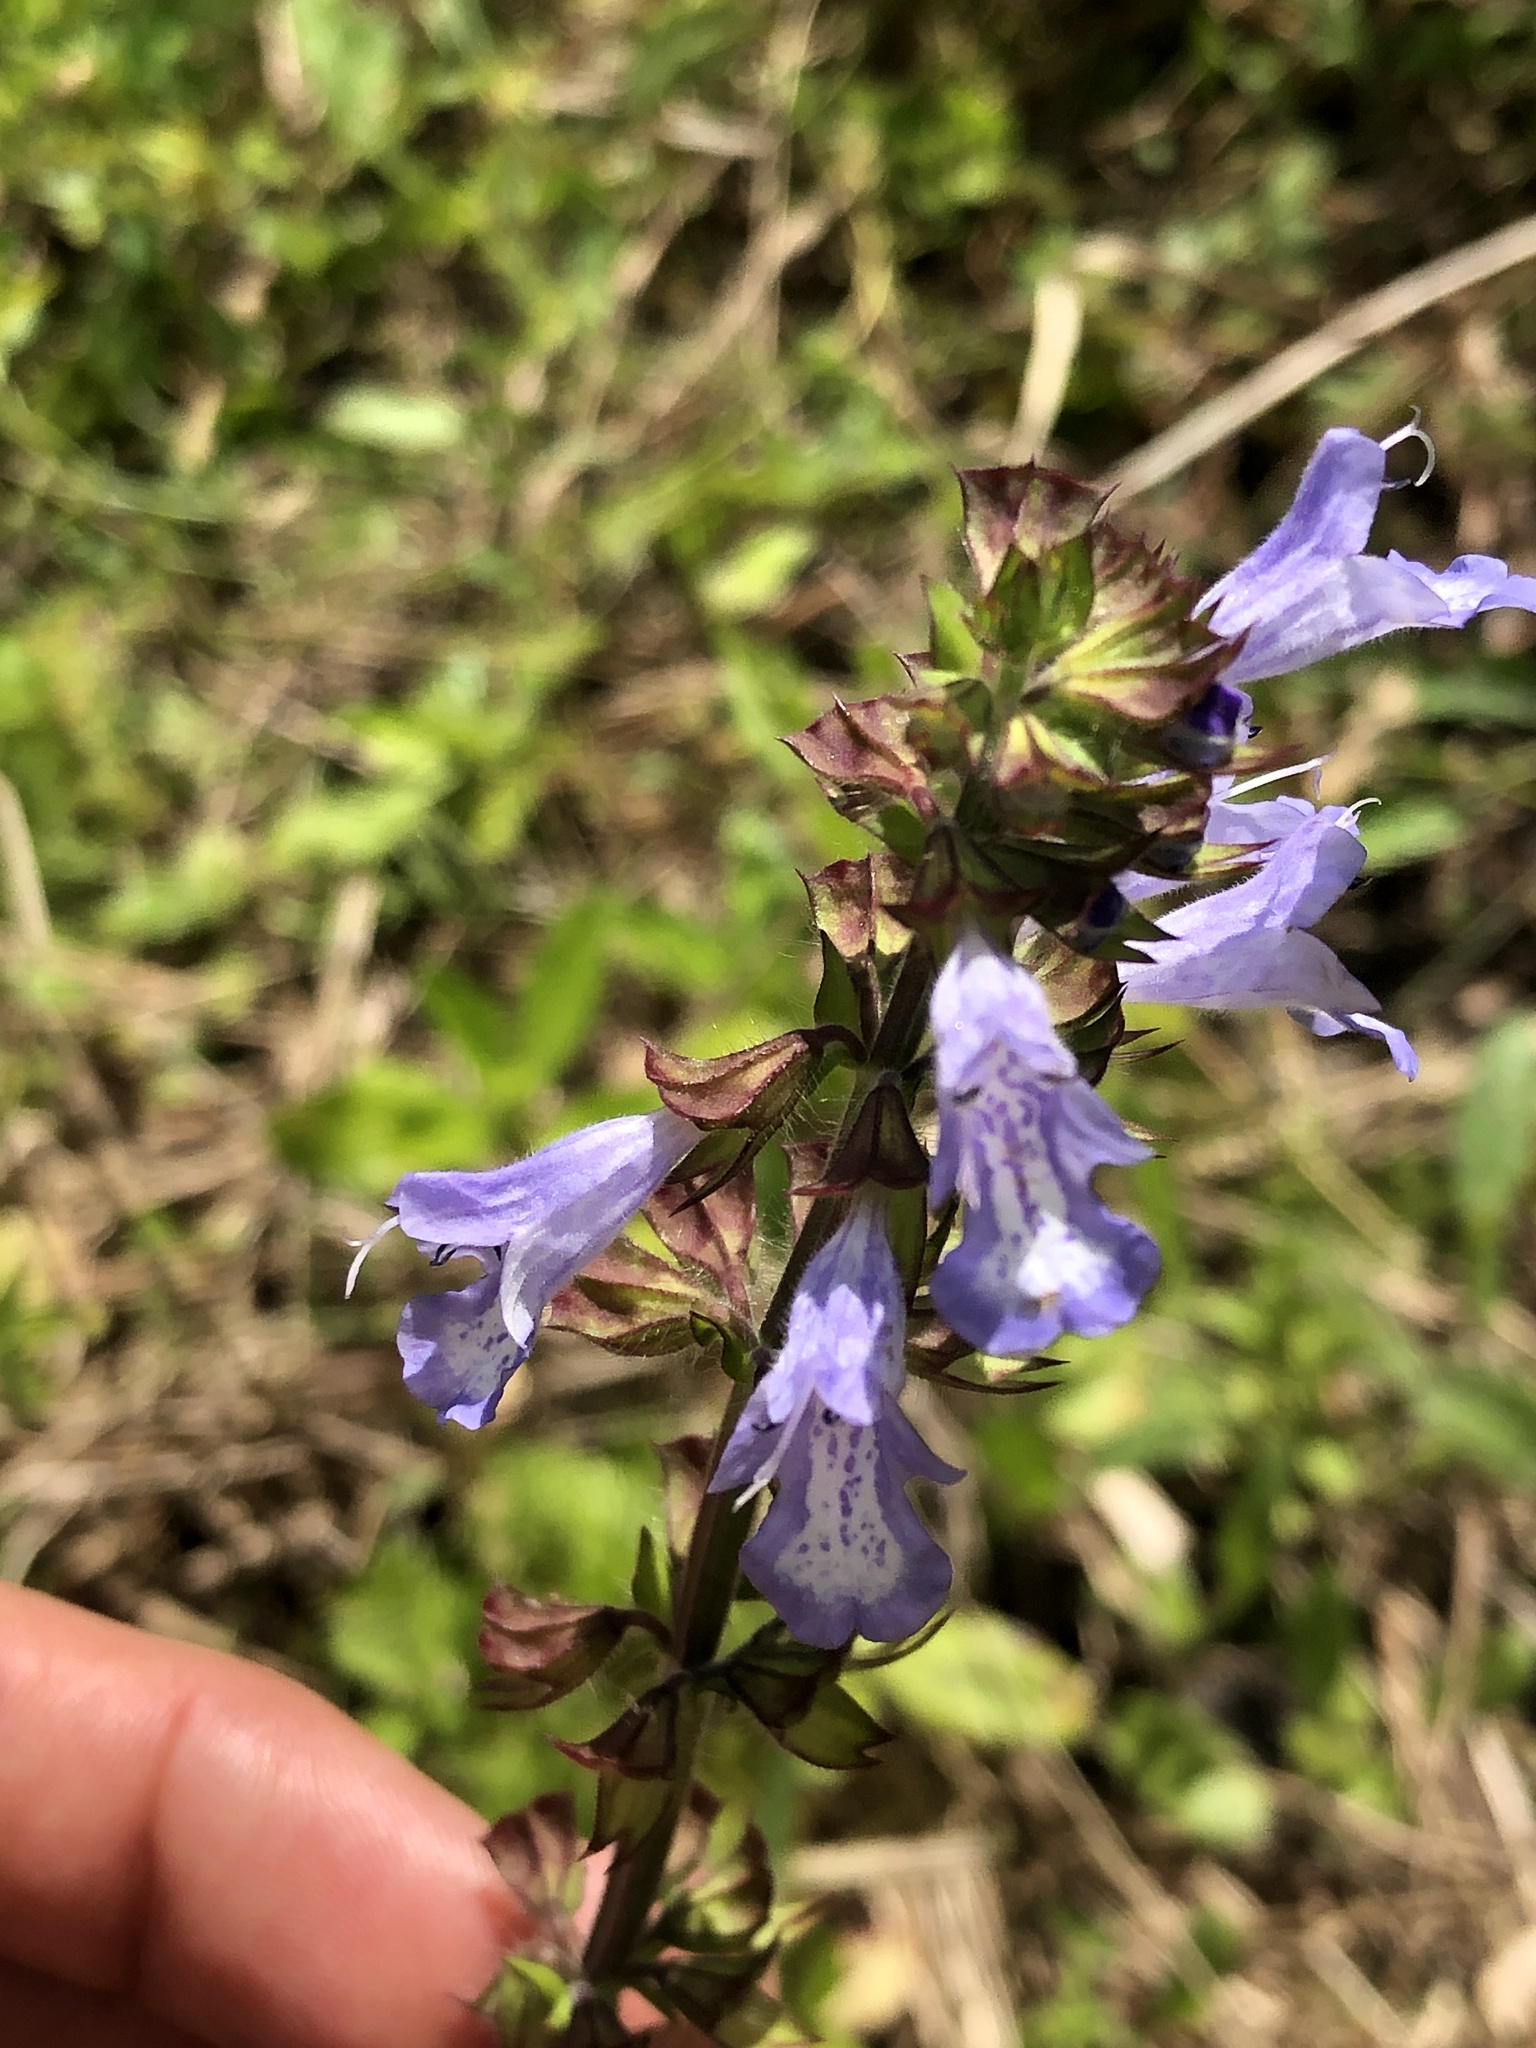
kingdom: Plantae
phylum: Tracheophyta
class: Magnoliopsida
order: Lamiales
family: Lamiaceae
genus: Salvia
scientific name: Salvia lyrata
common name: Cancerweed
